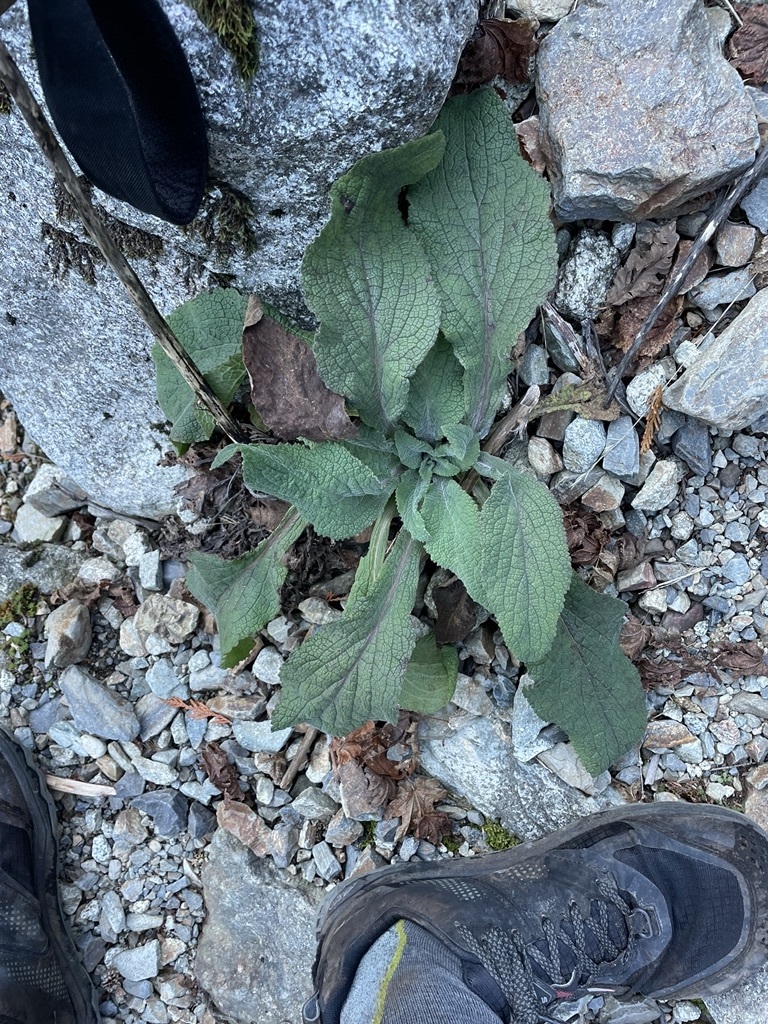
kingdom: Plantae
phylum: Tracheophyta
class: Magnoliopsida
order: Lamiales
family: Plantaginaceae
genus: Digitalis
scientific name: Digitalis purpurea
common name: Foxglove
